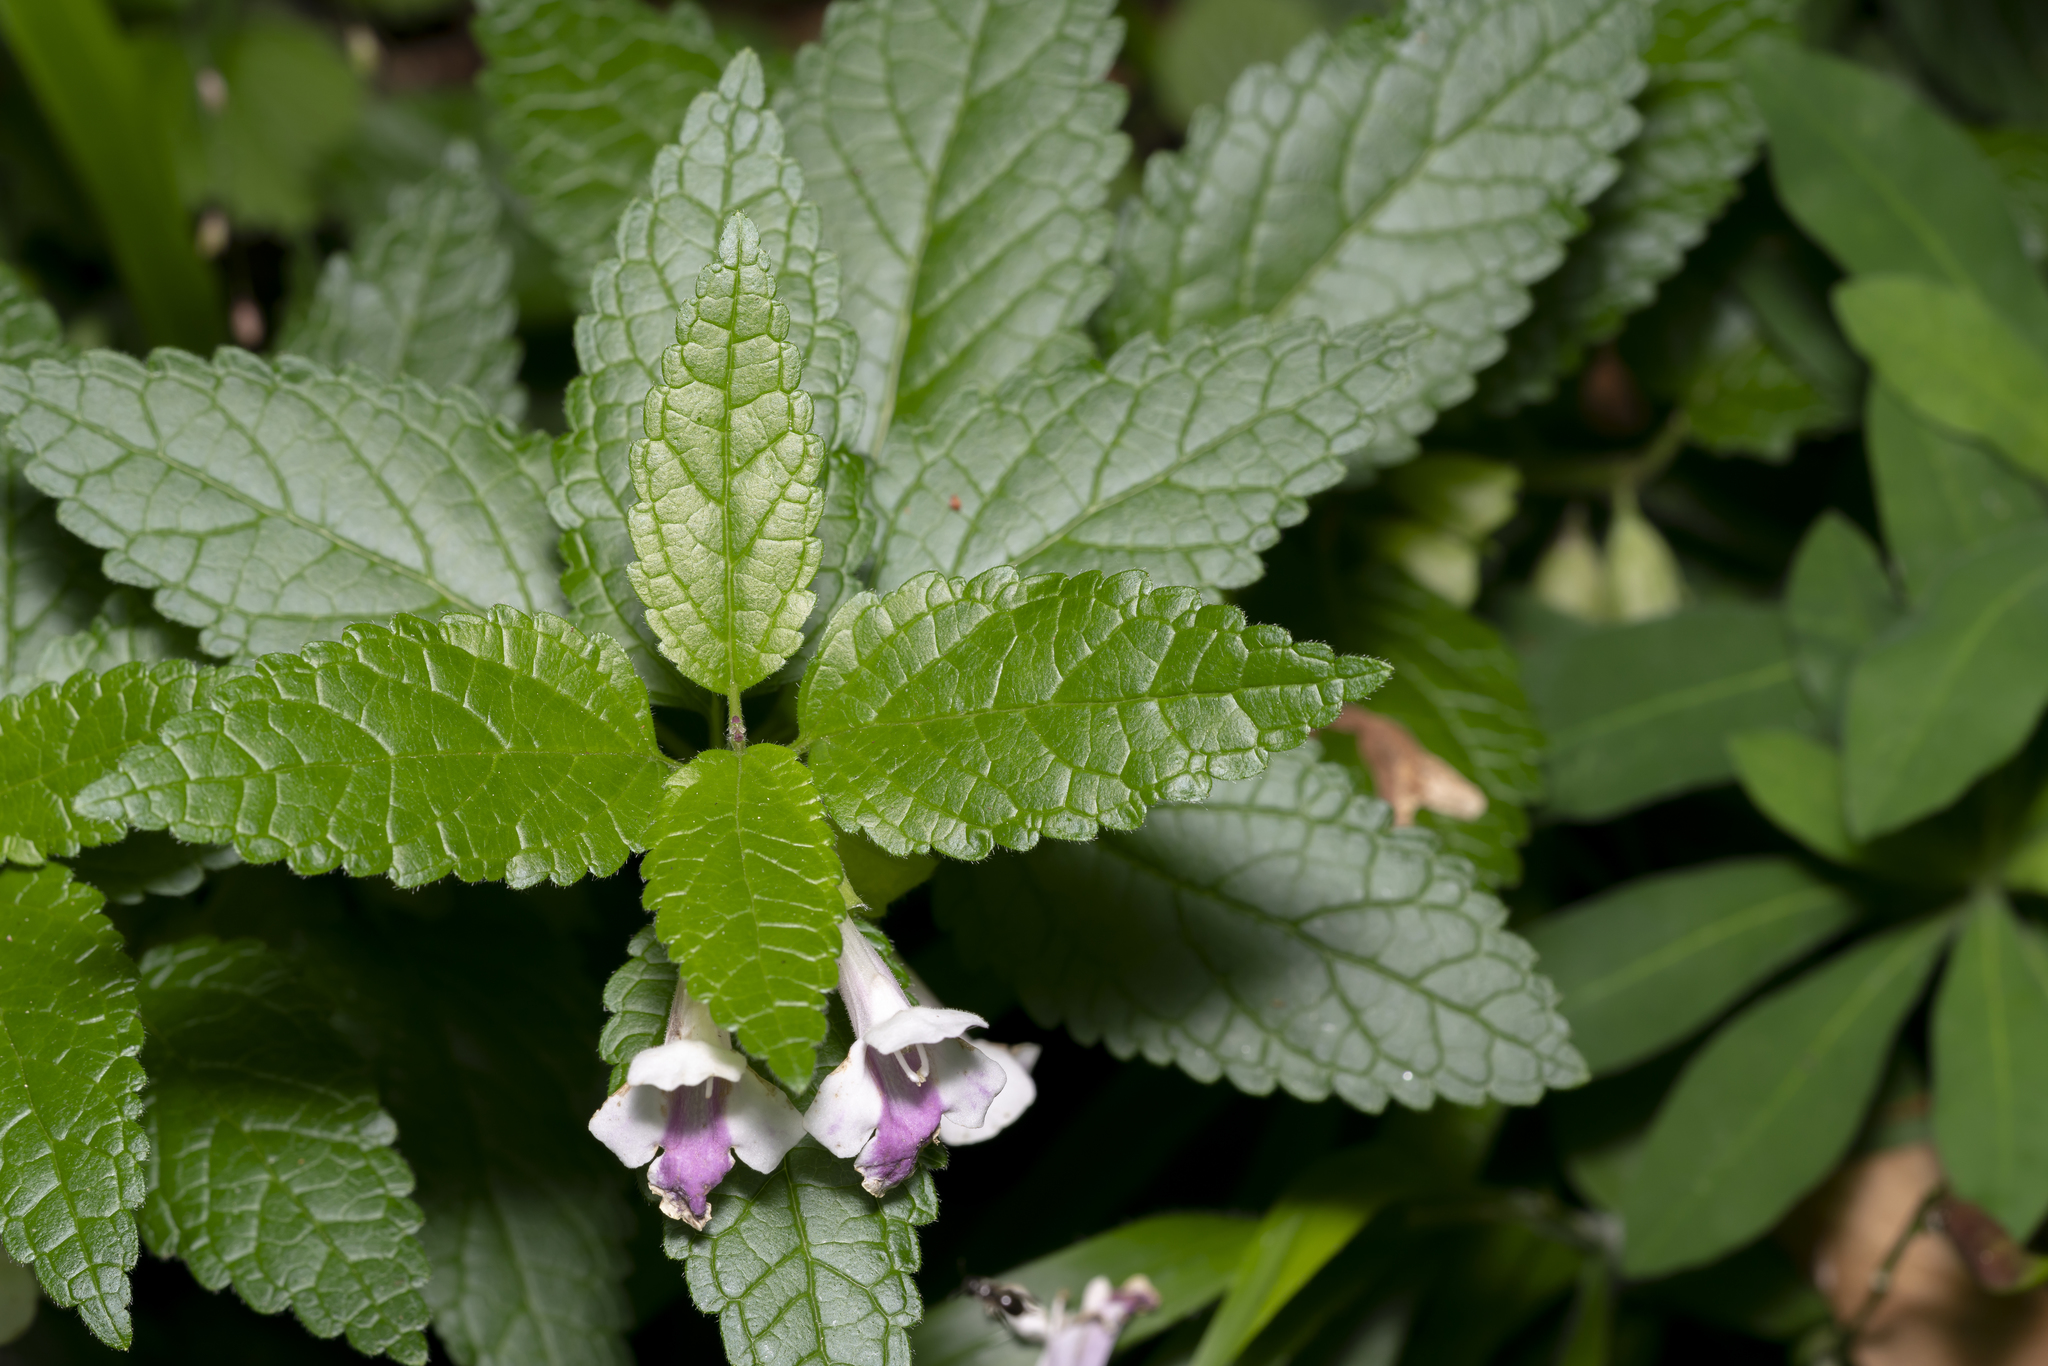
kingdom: Plantae
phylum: Tracheophyta
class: Magnoliopsida
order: Lamiales
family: Lamiaceae
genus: Melittis
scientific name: Melittis melissophyllum
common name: Bastard balm
